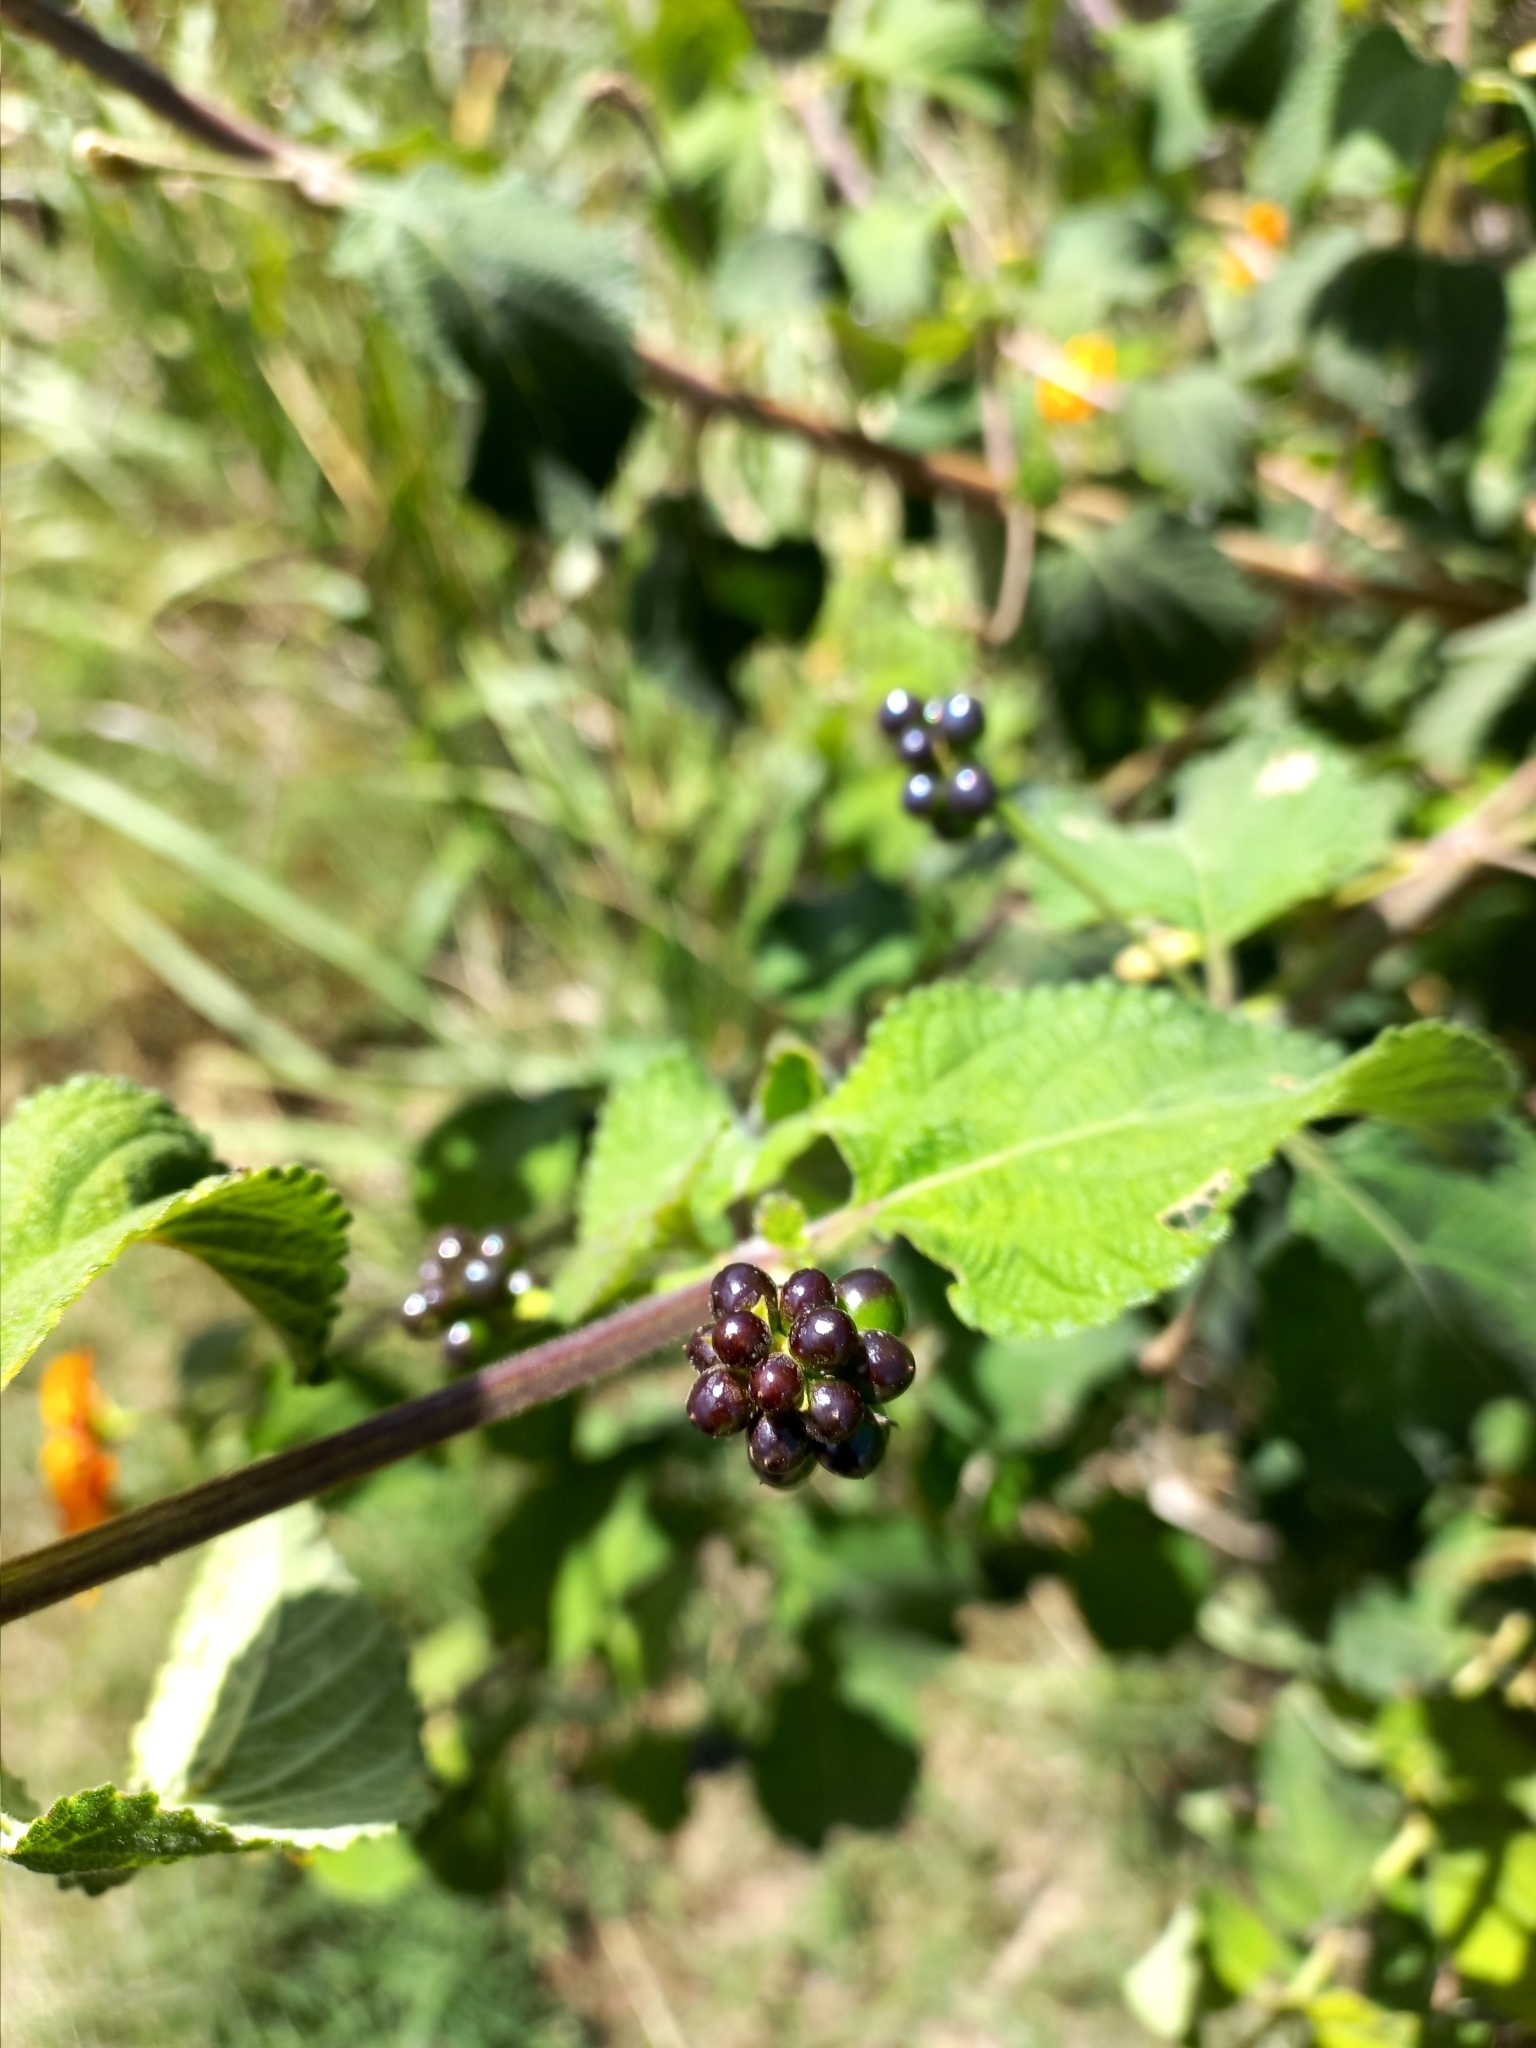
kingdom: Plantae
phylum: Tracheophyta
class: Magnoliopsida
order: Lamiales
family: Verbenaceae
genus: Lantana
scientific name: Lantana camara
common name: Lantana
